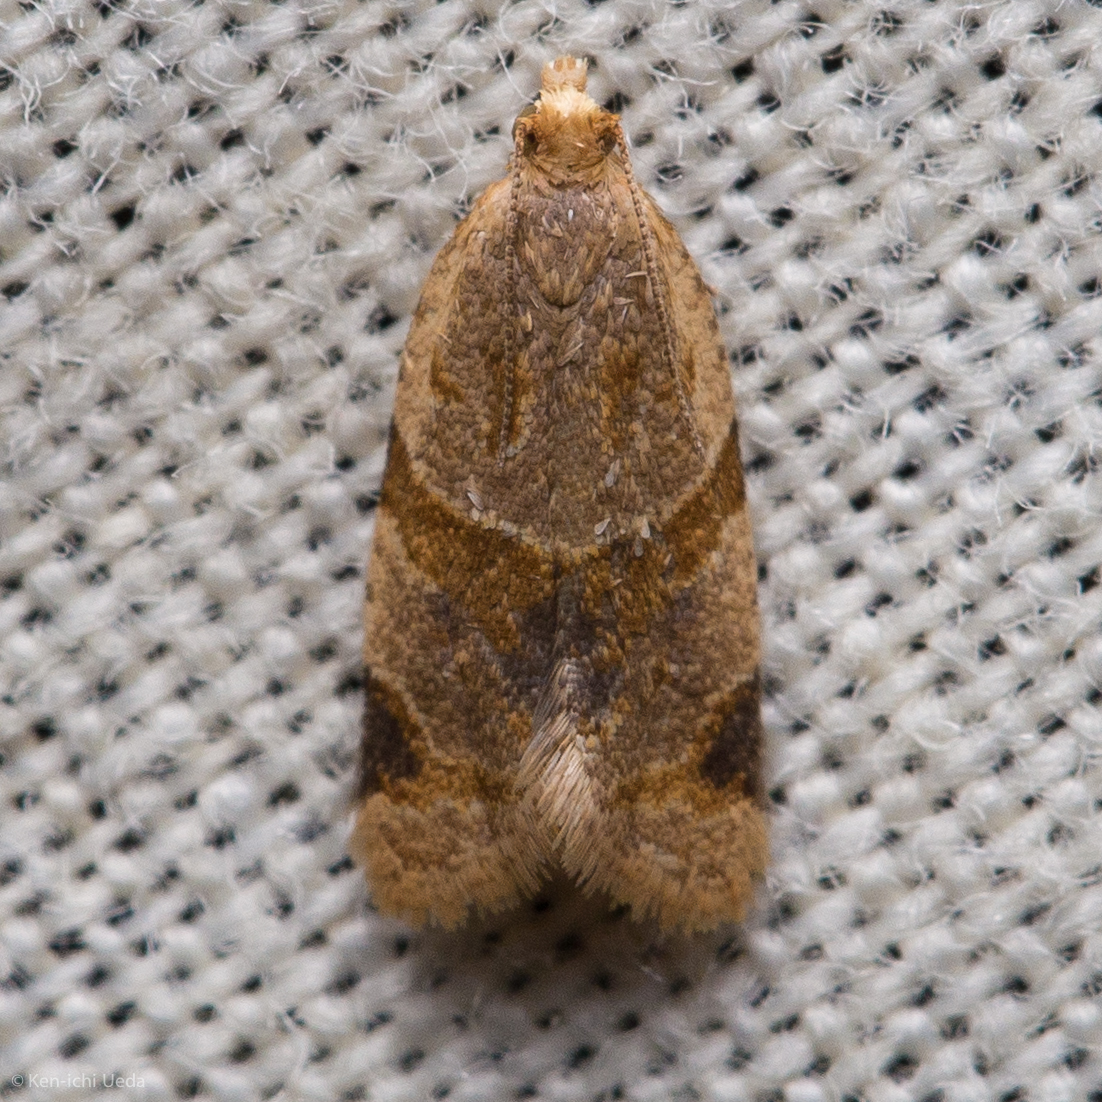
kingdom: Animalia
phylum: Arthropoda
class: Insecta
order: Lepidoptera
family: Tortricidae
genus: Clepsis
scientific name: Clepsis peritana
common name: Garden tortrix
